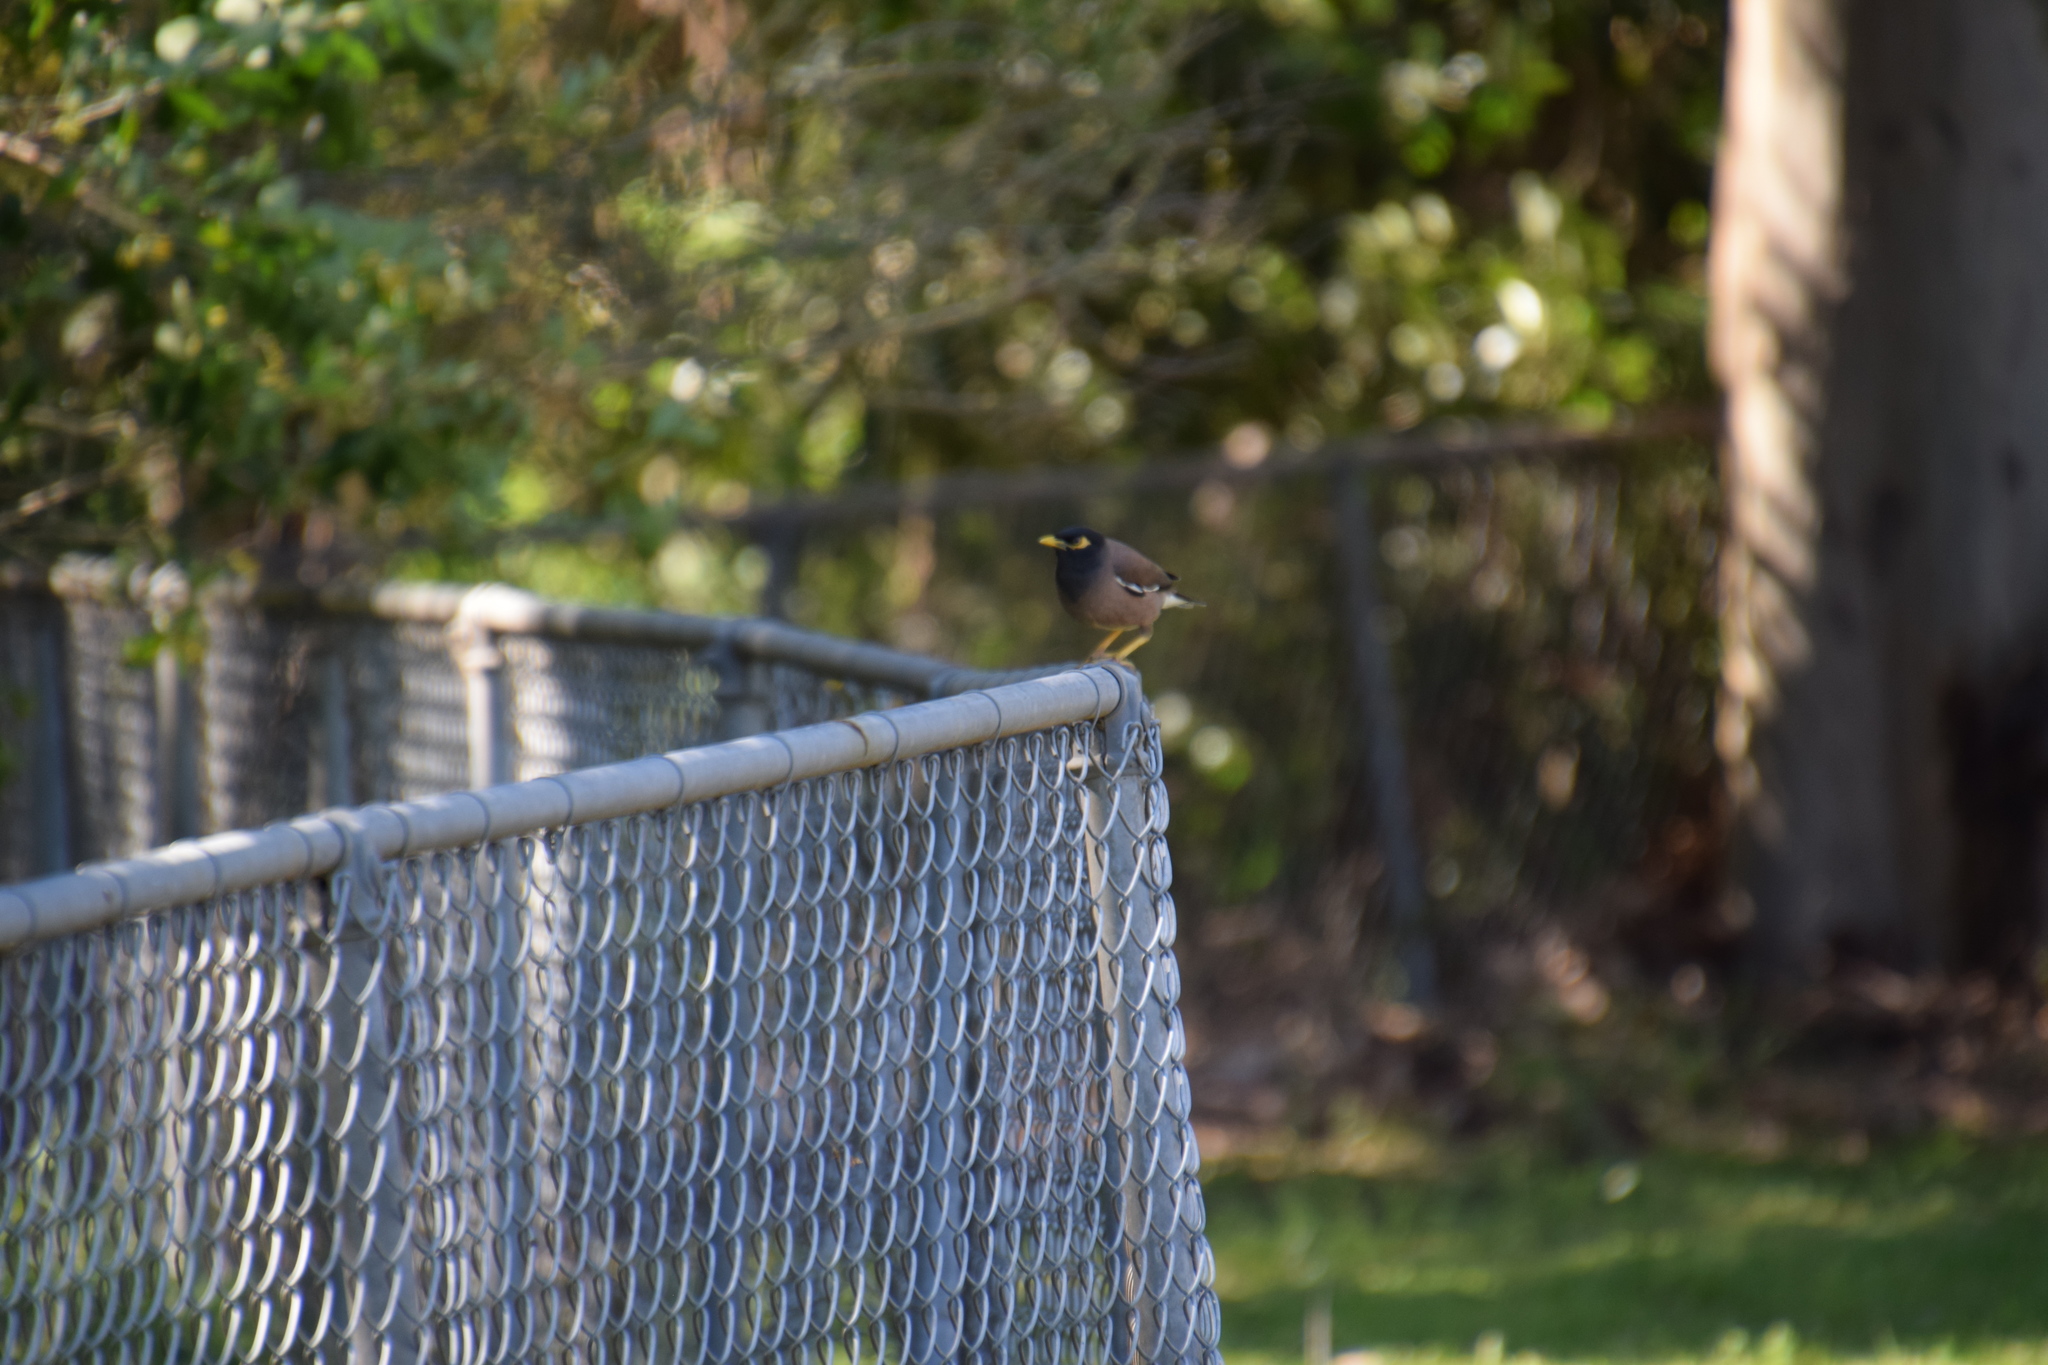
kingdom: Animalia
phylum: Chordata
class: Aves
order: Passeriformes
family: Sturnidae
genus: Acridotheres
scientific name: Acridotheres tristis
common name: Common myna
